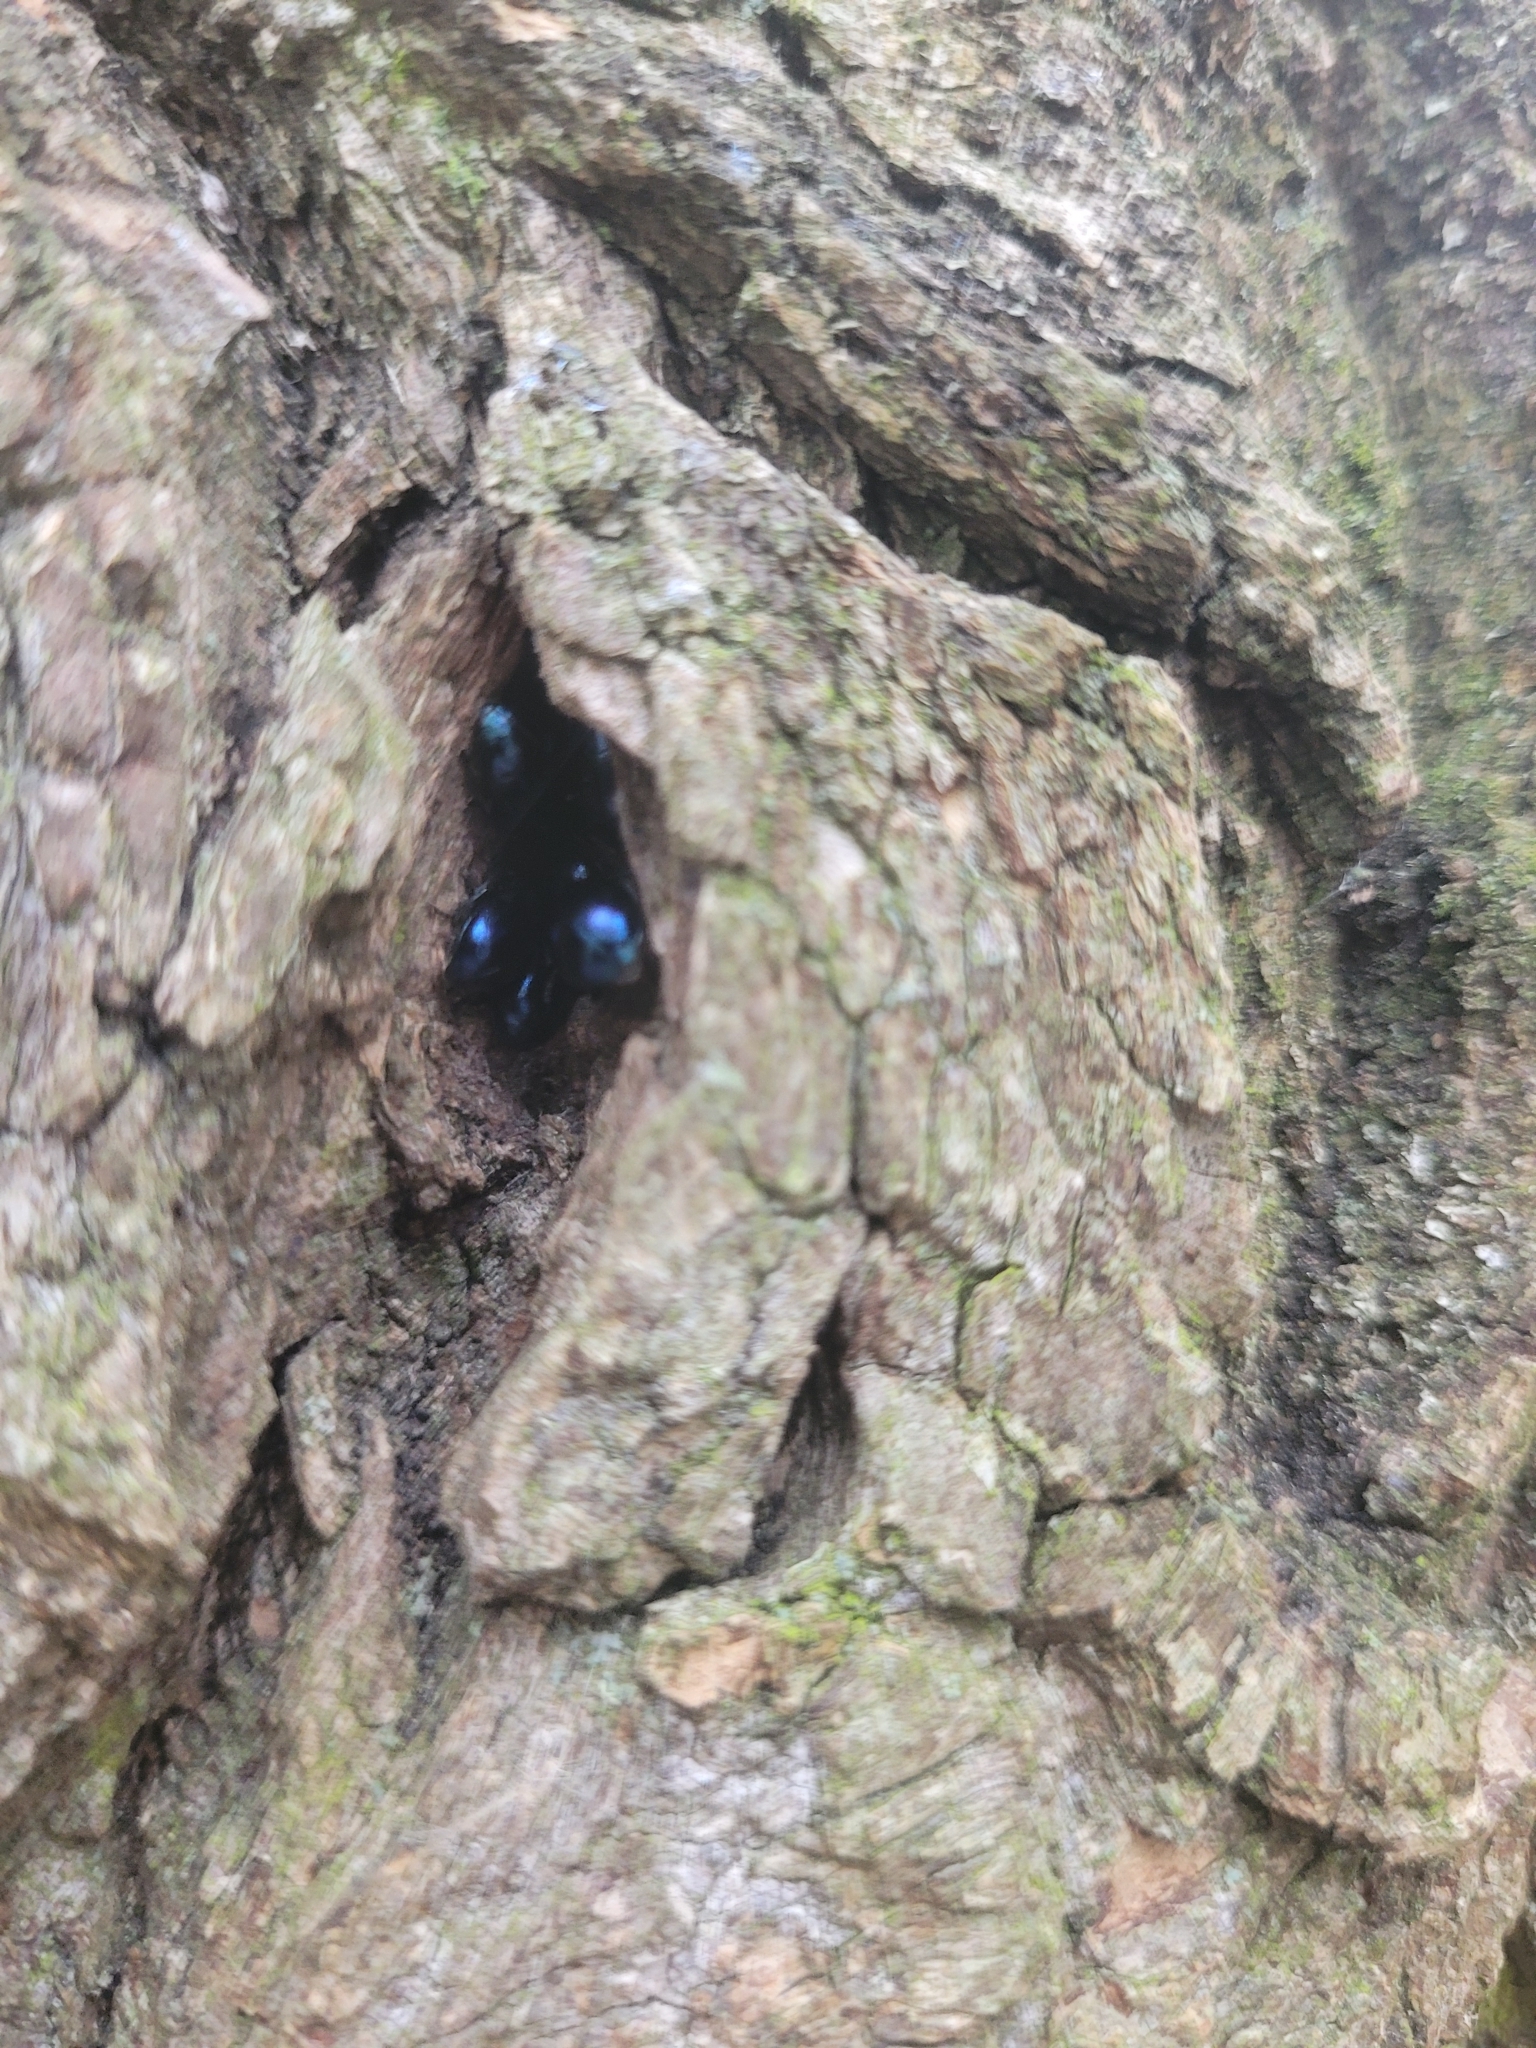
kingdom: Animalia
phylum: Arthropoda
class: Insecta
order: Coleoptera
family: Chrysomelidae
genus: Agelastica
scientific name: Agelastica alni
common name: Alder leaf beetle
